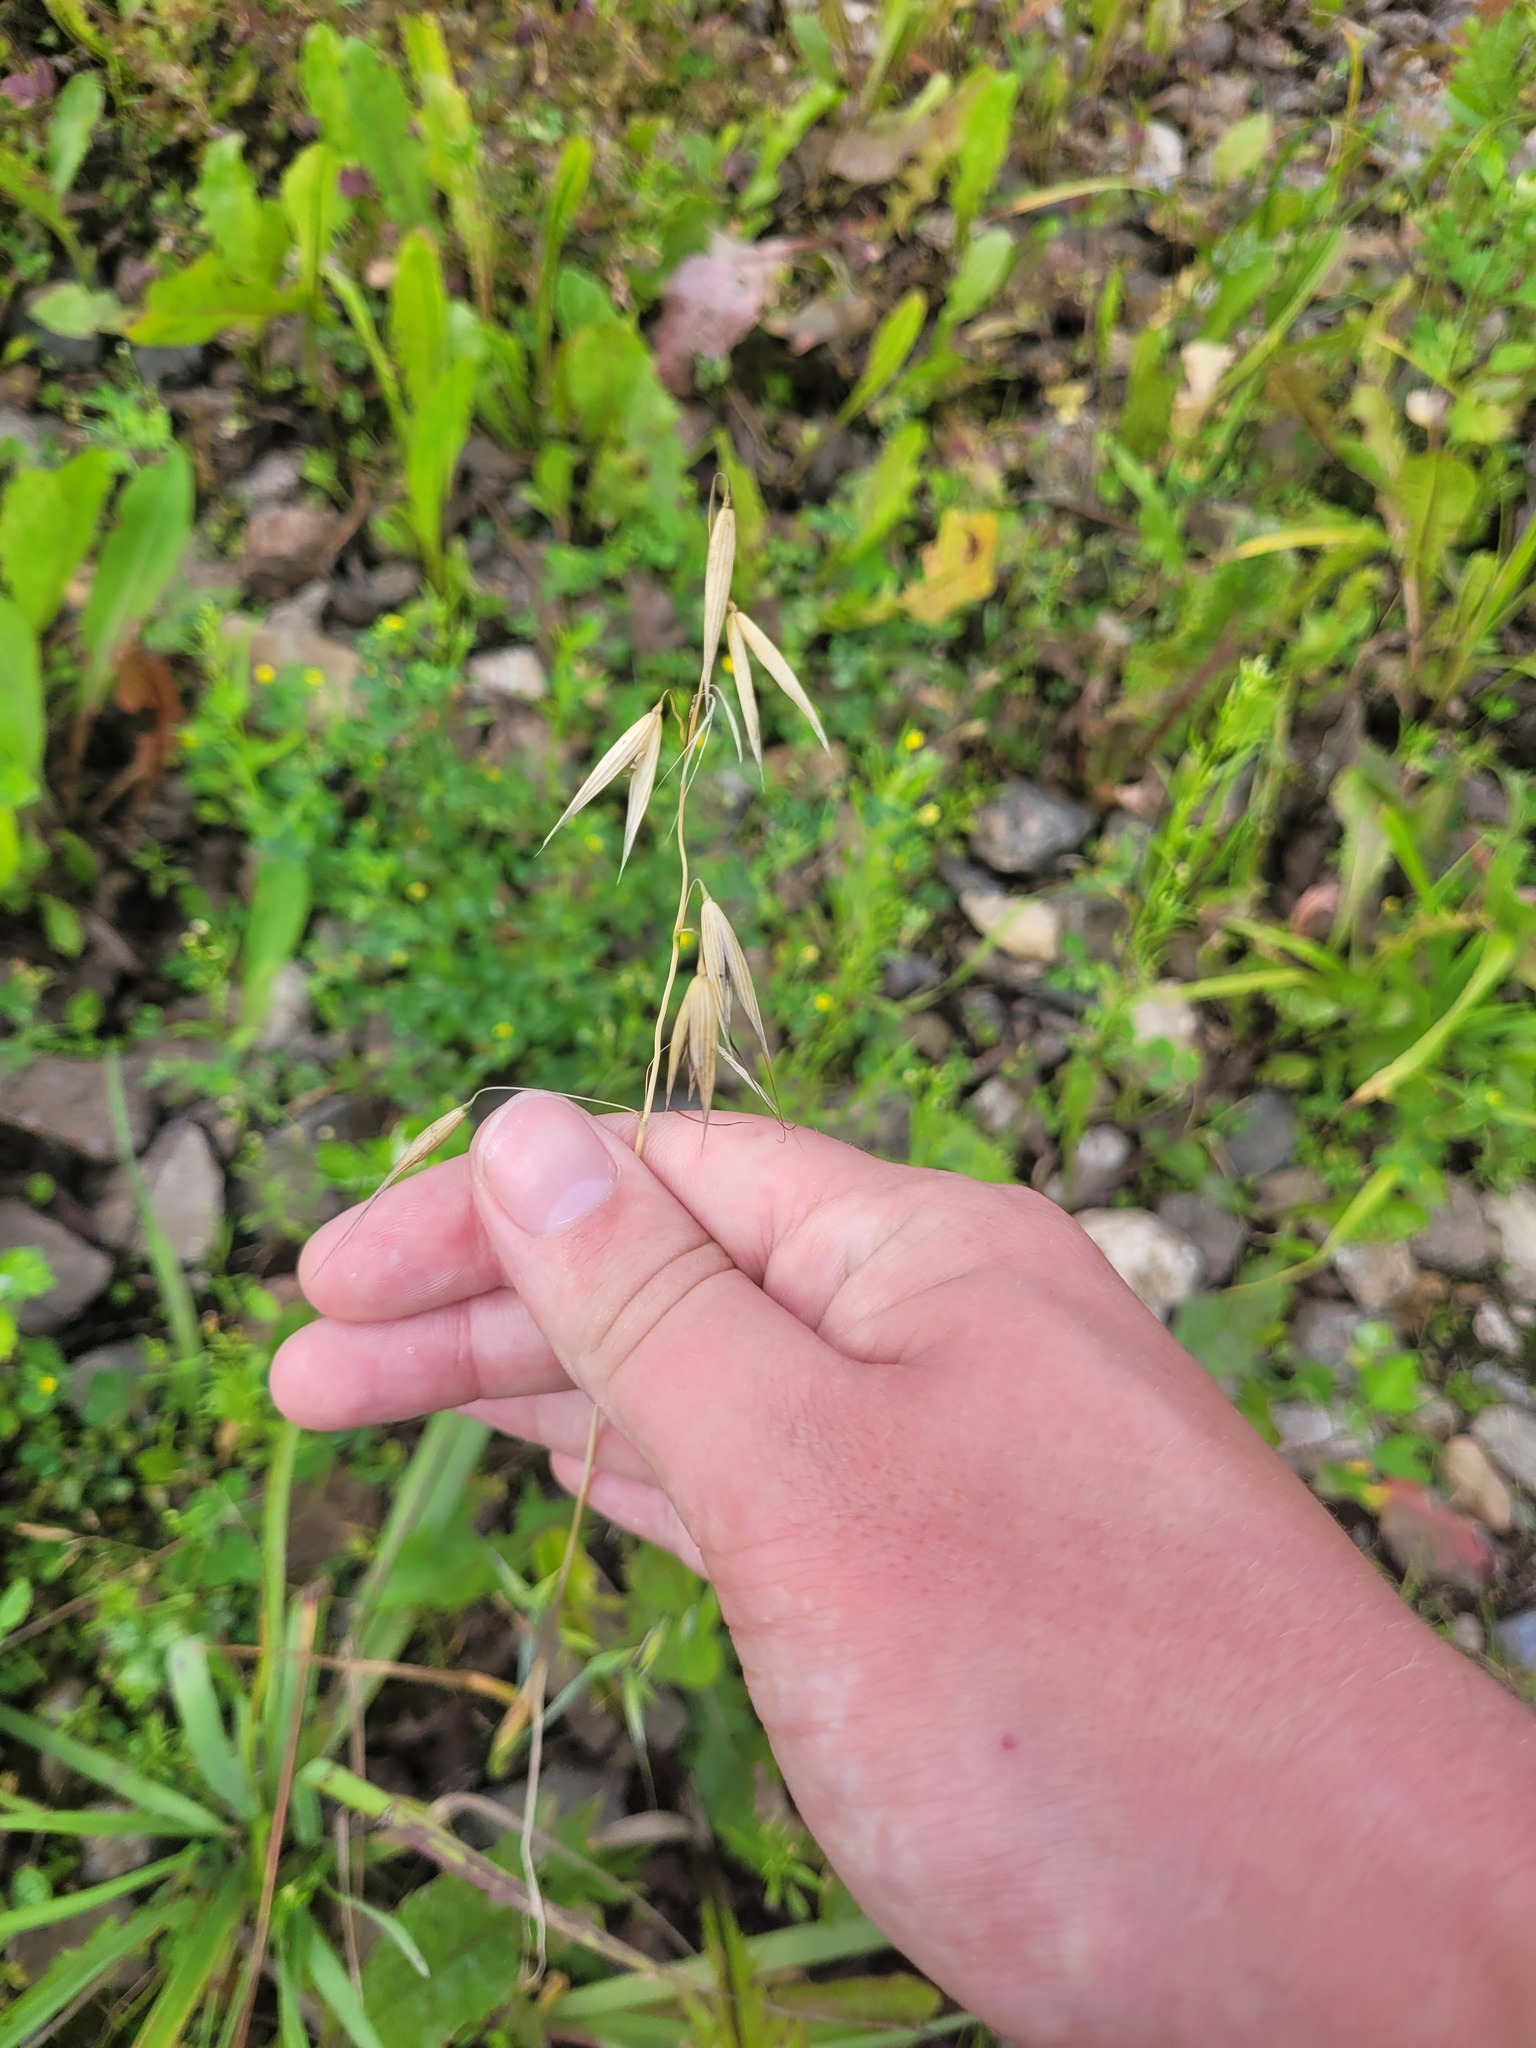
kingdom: Plantae
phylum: Tracheophyta
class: Liliopsida
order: Poales
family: Poaceae
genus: Avena
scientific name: Avena fatua
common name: Wild oat
